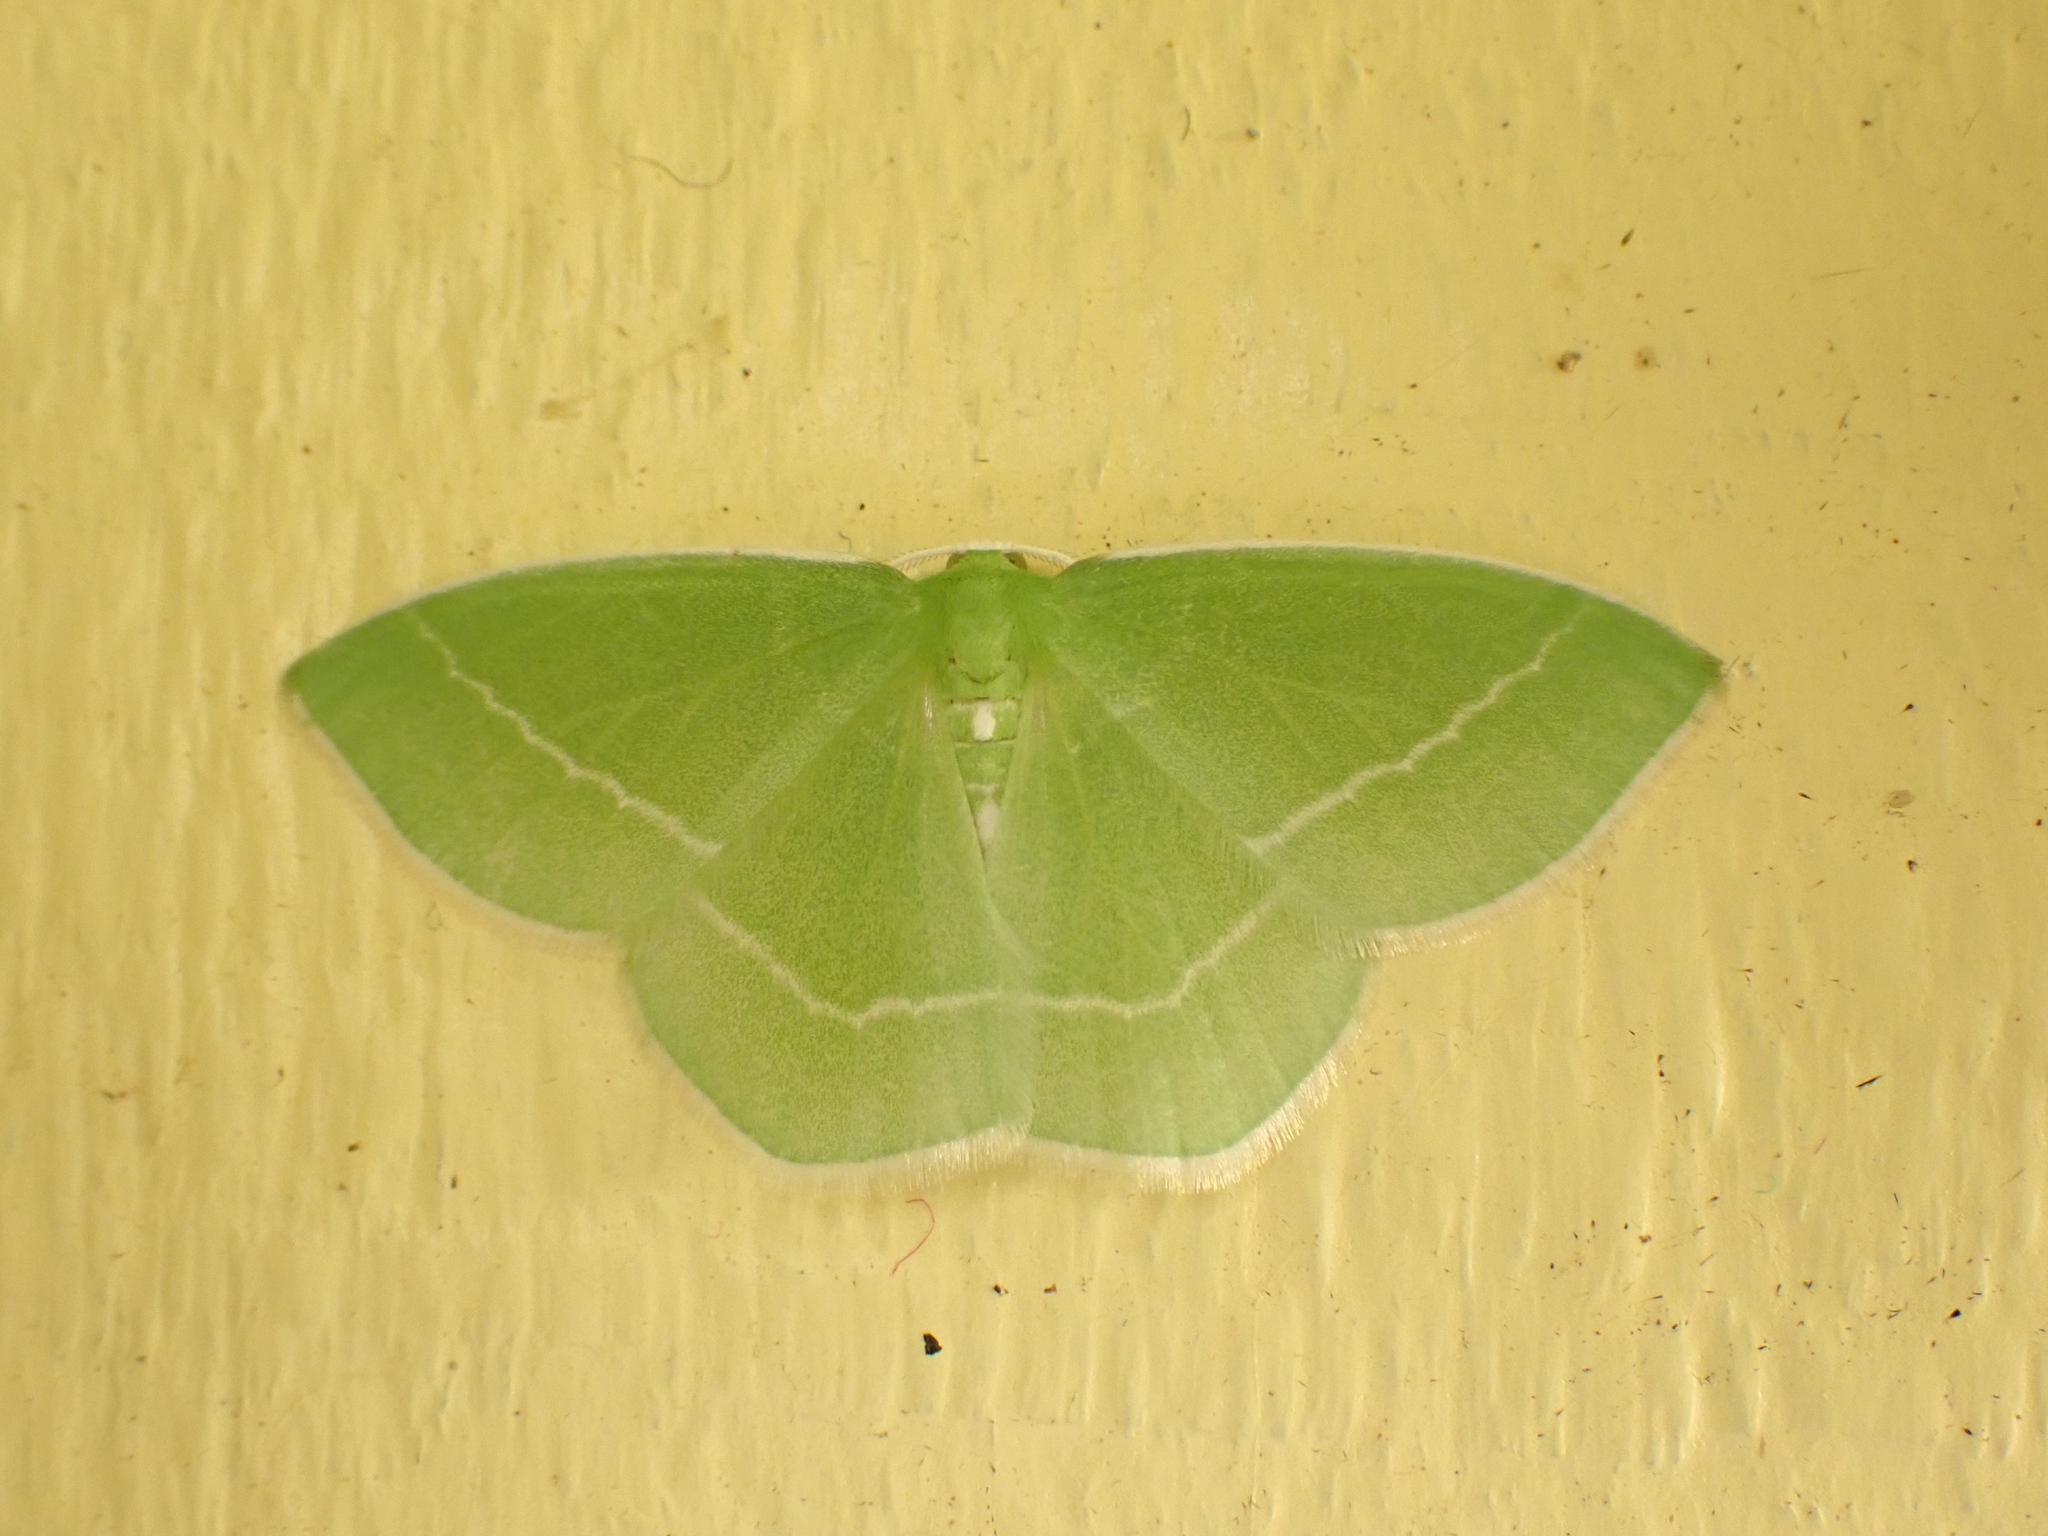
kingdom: Animalia
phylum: Arthropoda
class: Insecta
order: Lepidoptera
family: Geometridae
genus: Nemoria
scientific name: Nemoria mimosaria
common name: White-fringed emerald
